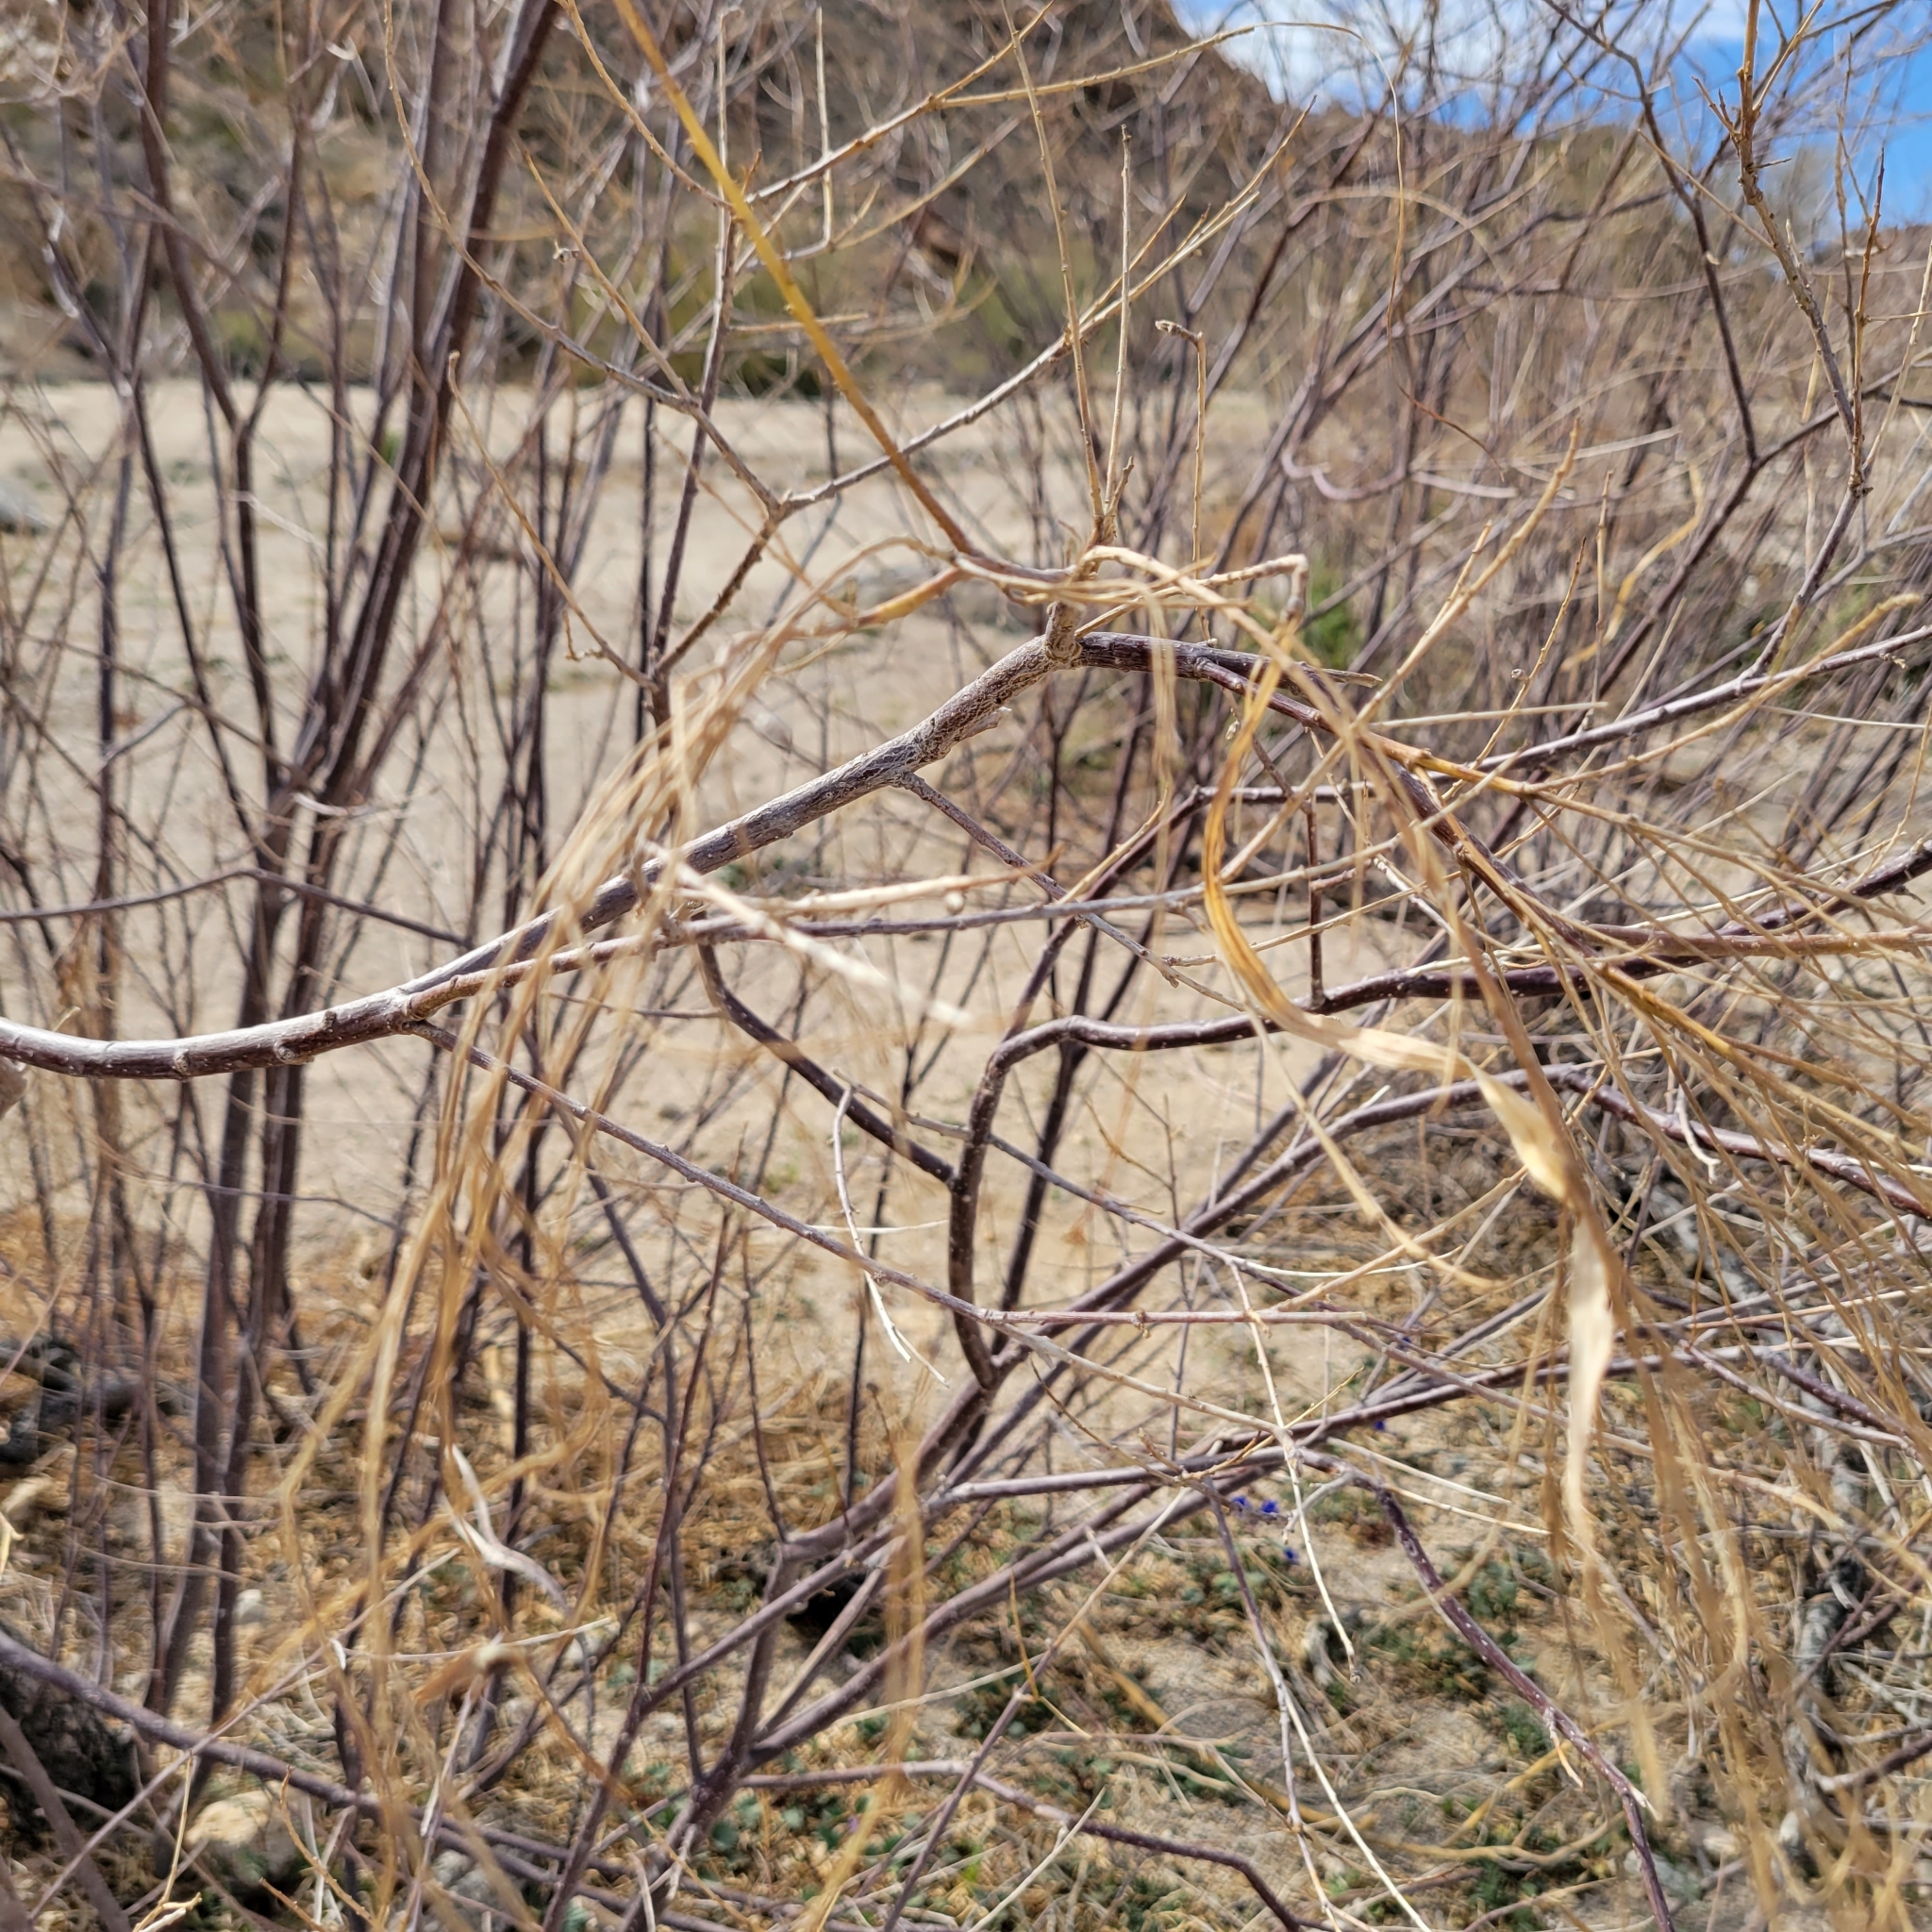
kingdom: Plantae
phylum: Tracheophyta
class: Magnoliopsida
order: Lamiales
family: Bignoniaceae
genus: Chilopsis
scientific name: Chilopsis linearis
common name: Desert-willow
